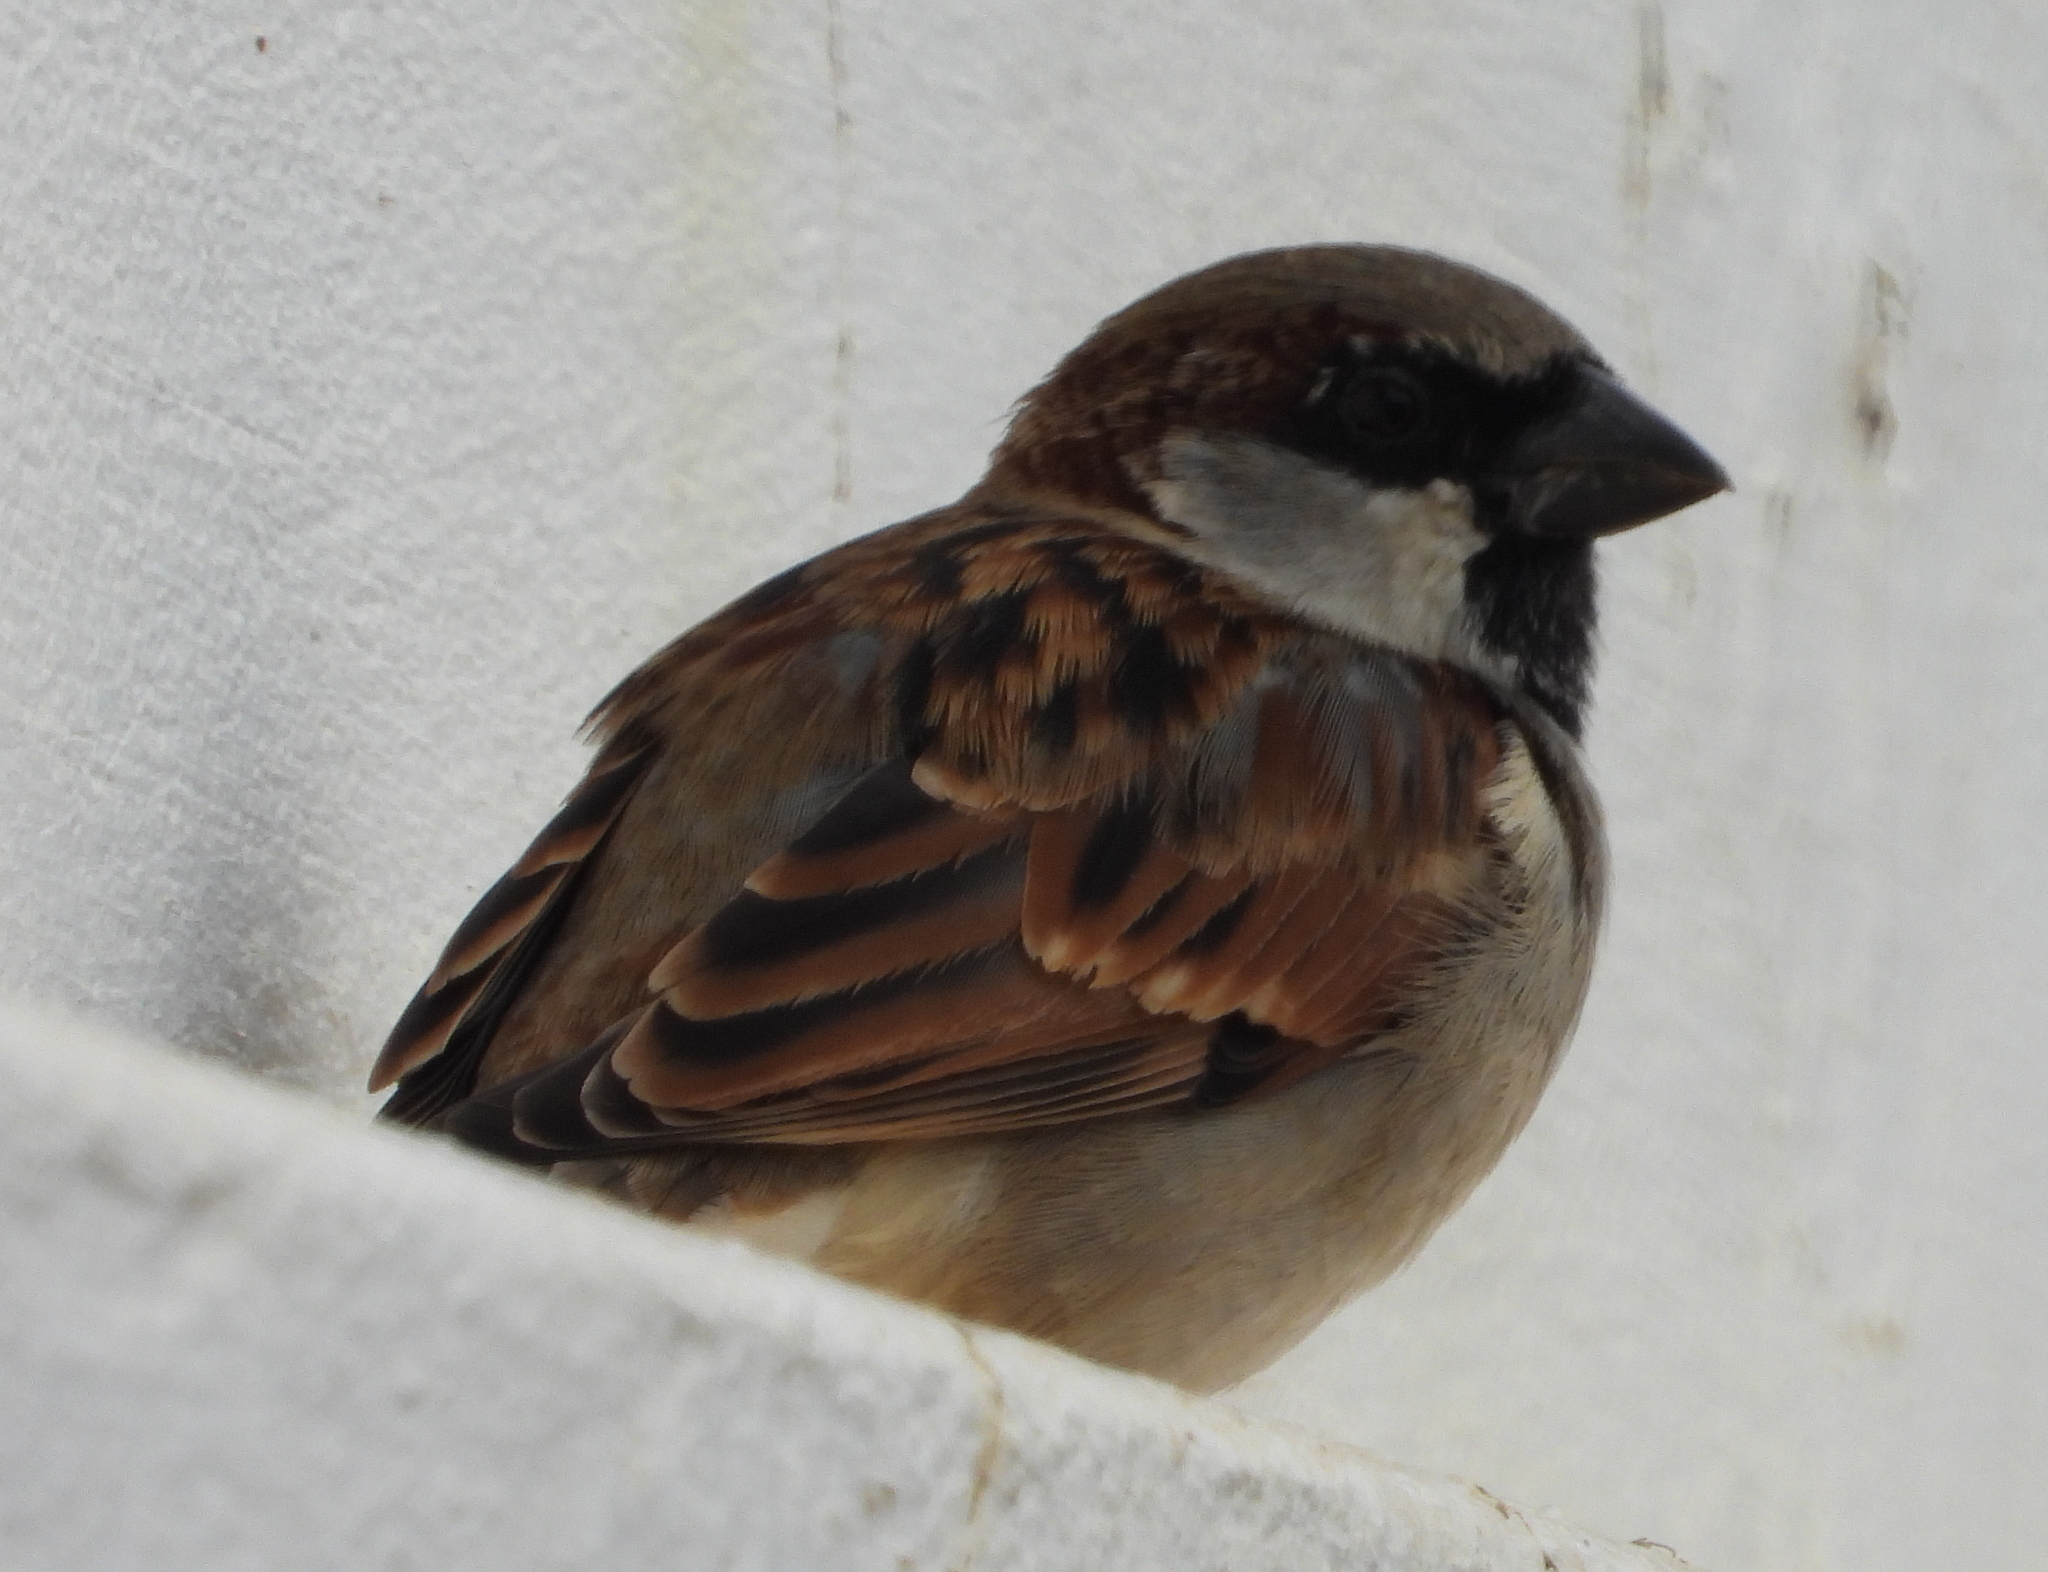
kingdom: Animalia
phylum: Chordata
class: Aves
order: Passeriformes
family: Passeridae
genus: Passer
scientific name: Passer domesticus
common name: House sparrow
